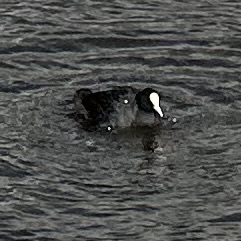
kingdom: Animalia
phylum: Chordata
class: Aves
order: Gruiformes
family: Rallidae
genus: Fulica
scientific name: Fulica atra
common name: Eurasian coot
